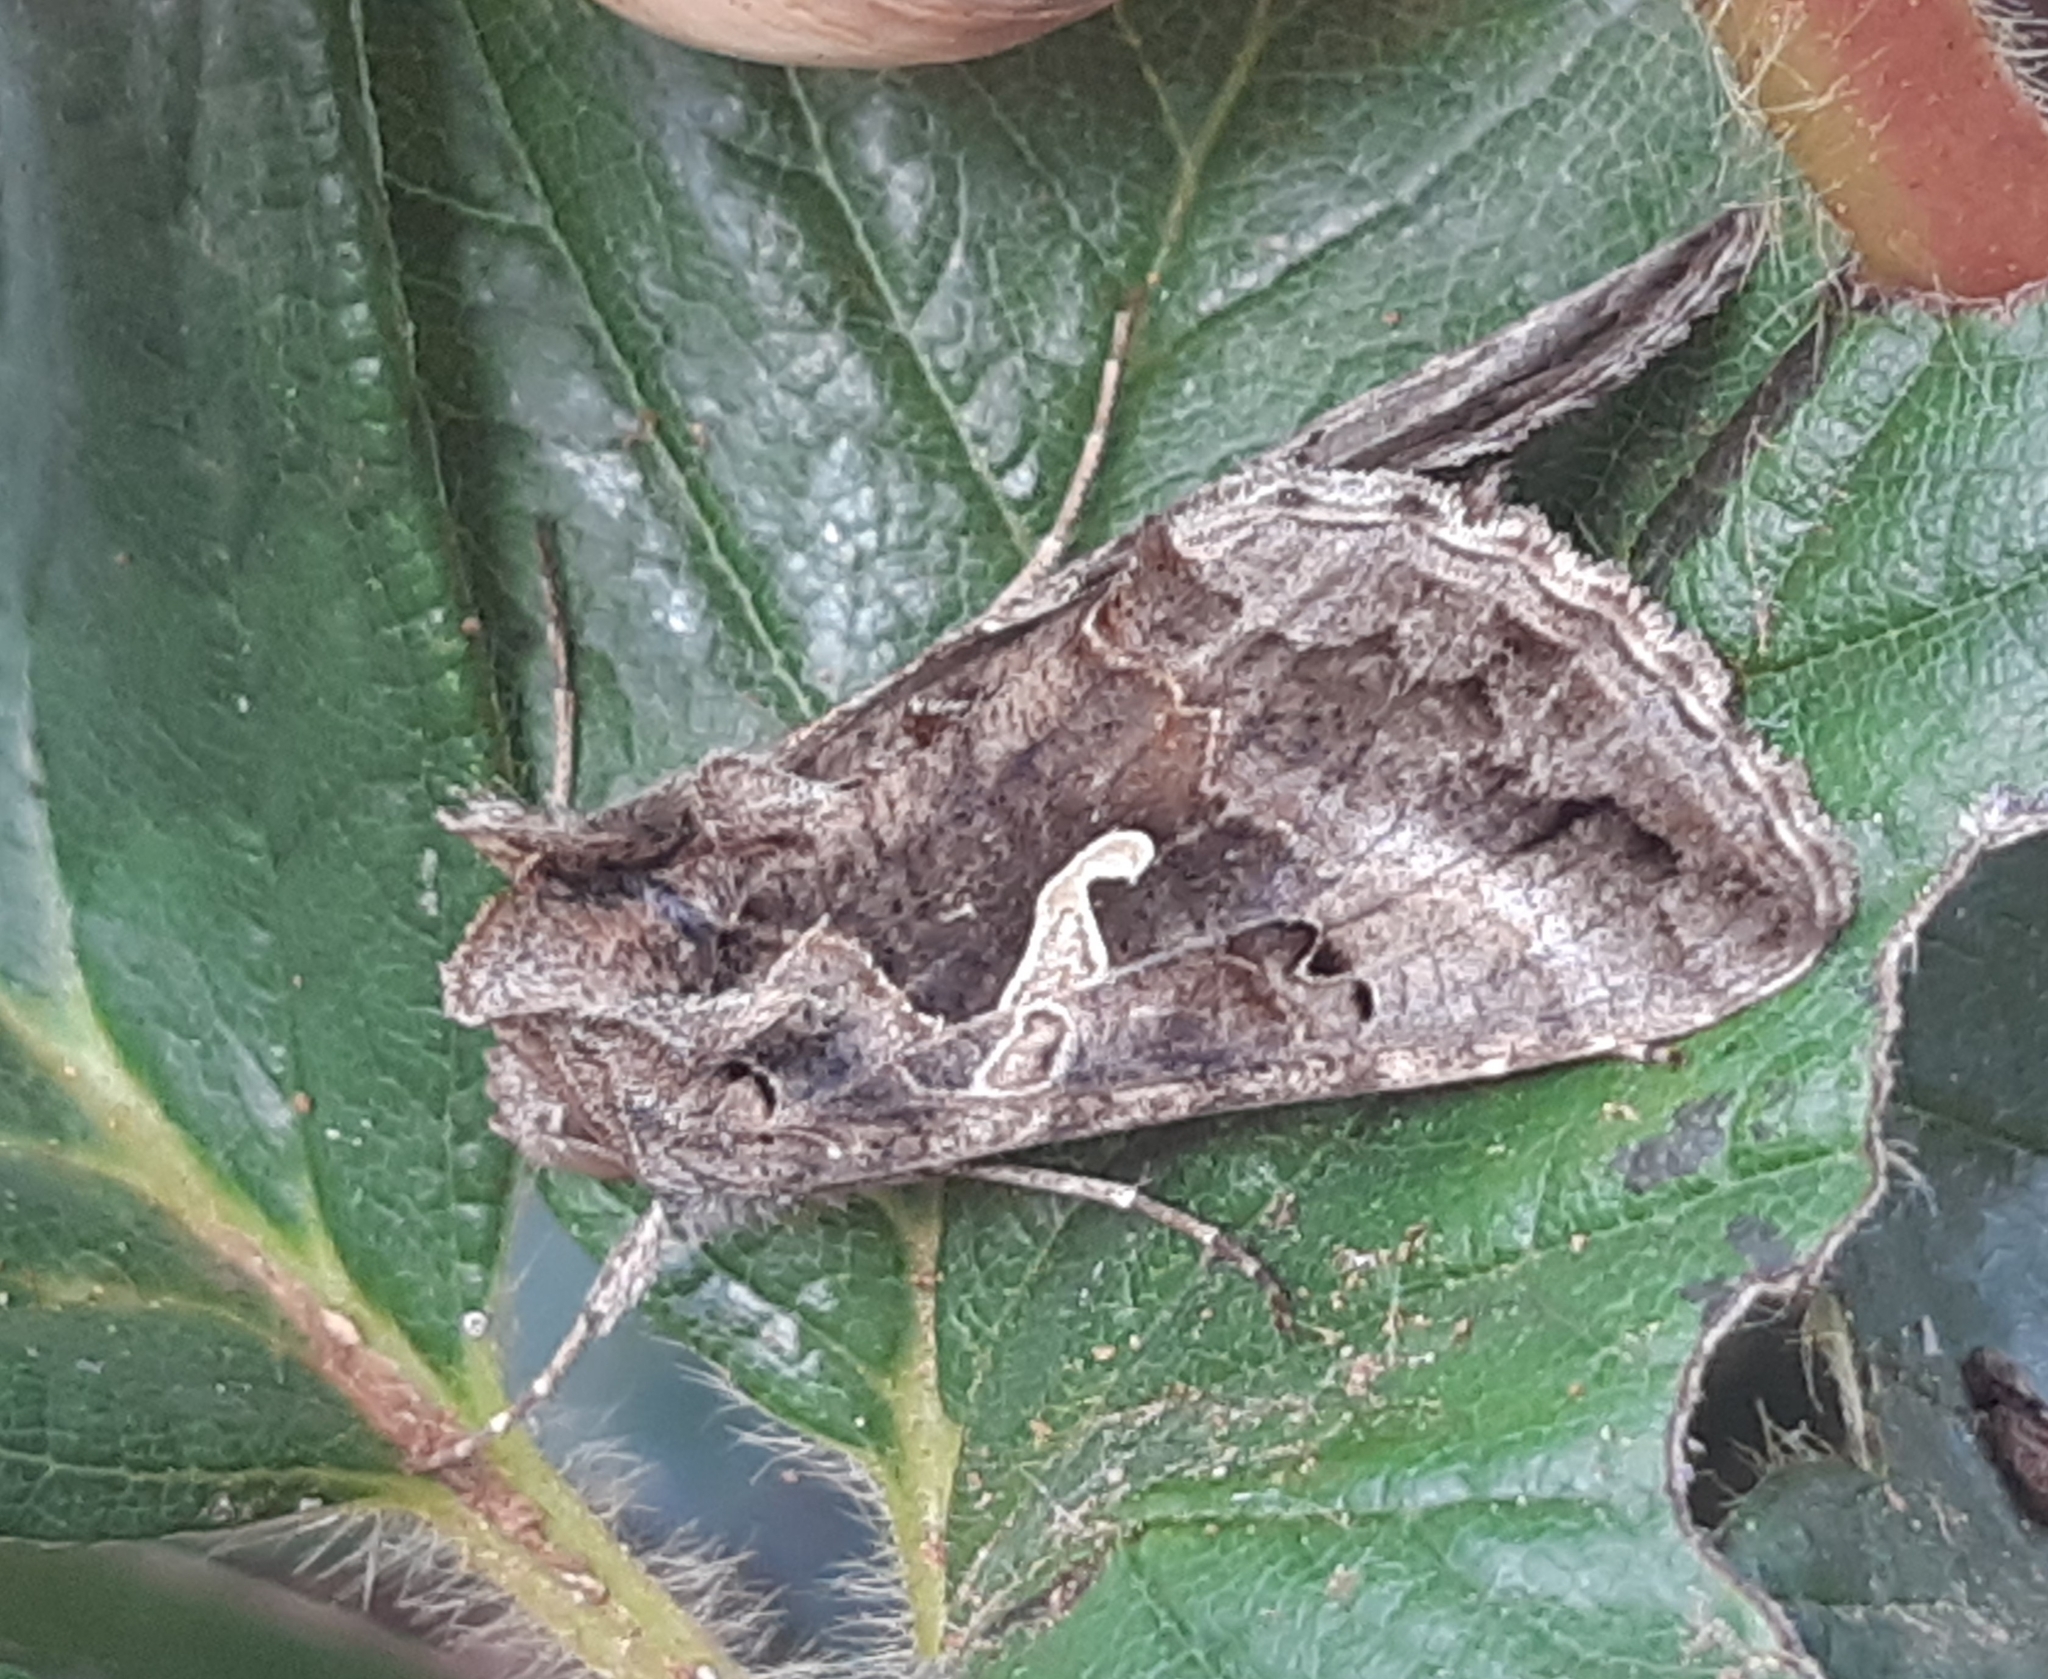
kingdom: Animalia
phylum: Arthropoda
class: Insecta
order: Lepidoptera
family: Noctuidae
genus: Autographa
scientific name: Autographa gamma
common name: Silver y
